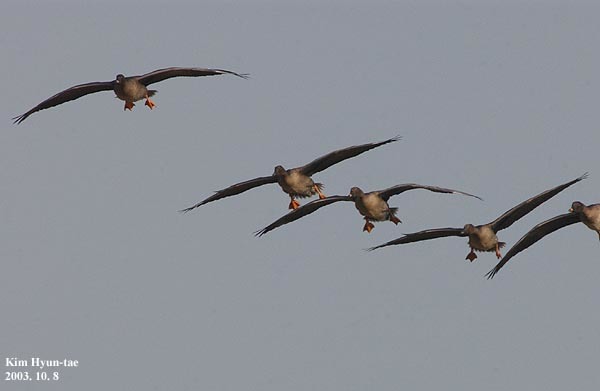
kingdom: Animalia
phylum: Chordata
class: Aves
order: Anseriformes
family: Anatidae
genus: Anser
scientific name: Anser fabalis
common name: Bean goose
